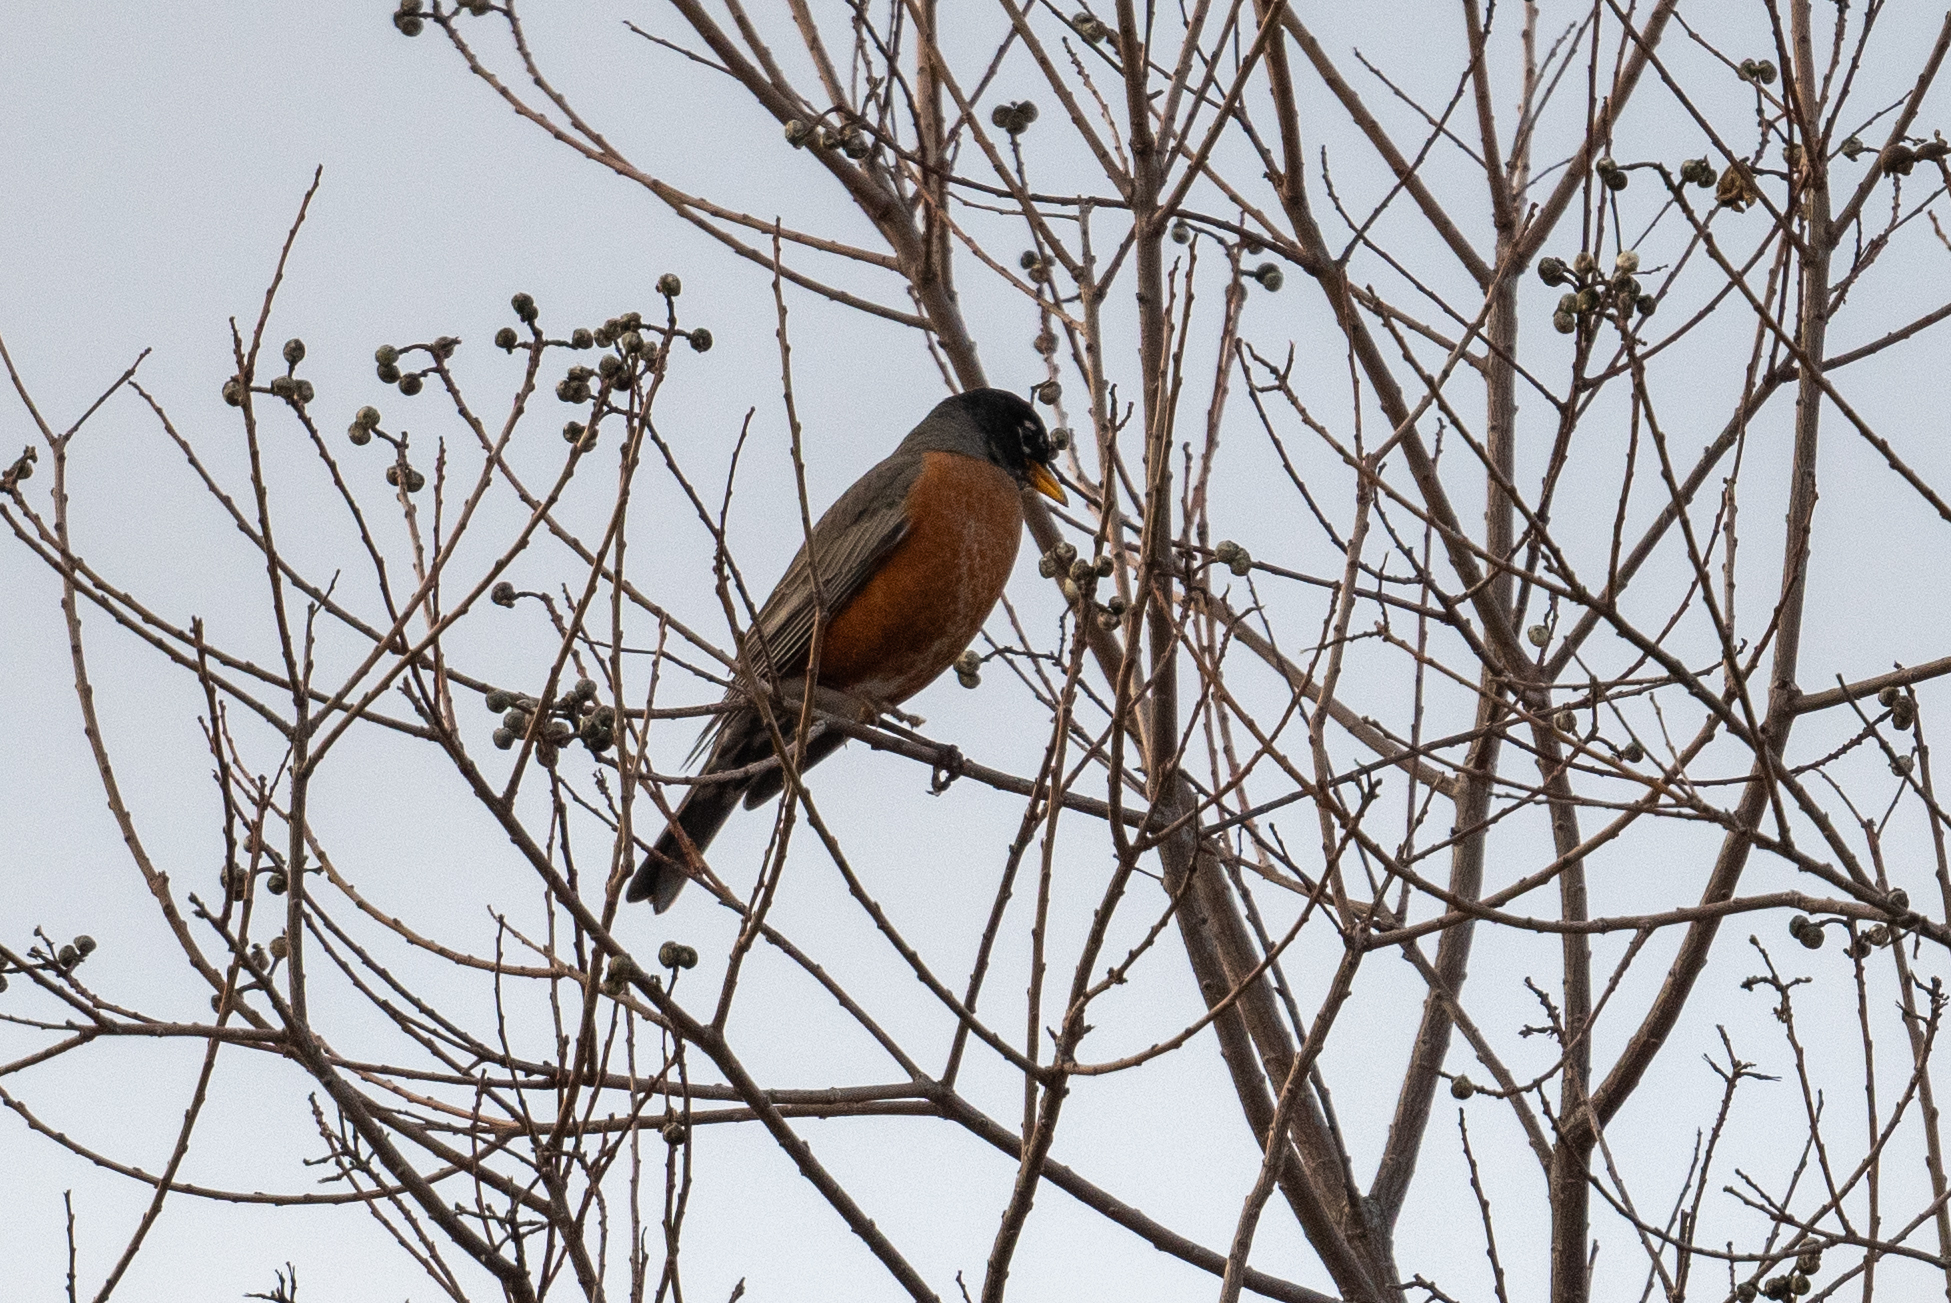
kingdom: Animalia
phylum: Chordata
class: Aves
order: Passeriformes
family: Turdidae
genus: Turdus
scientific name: Turdus migratorius
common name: American robin
